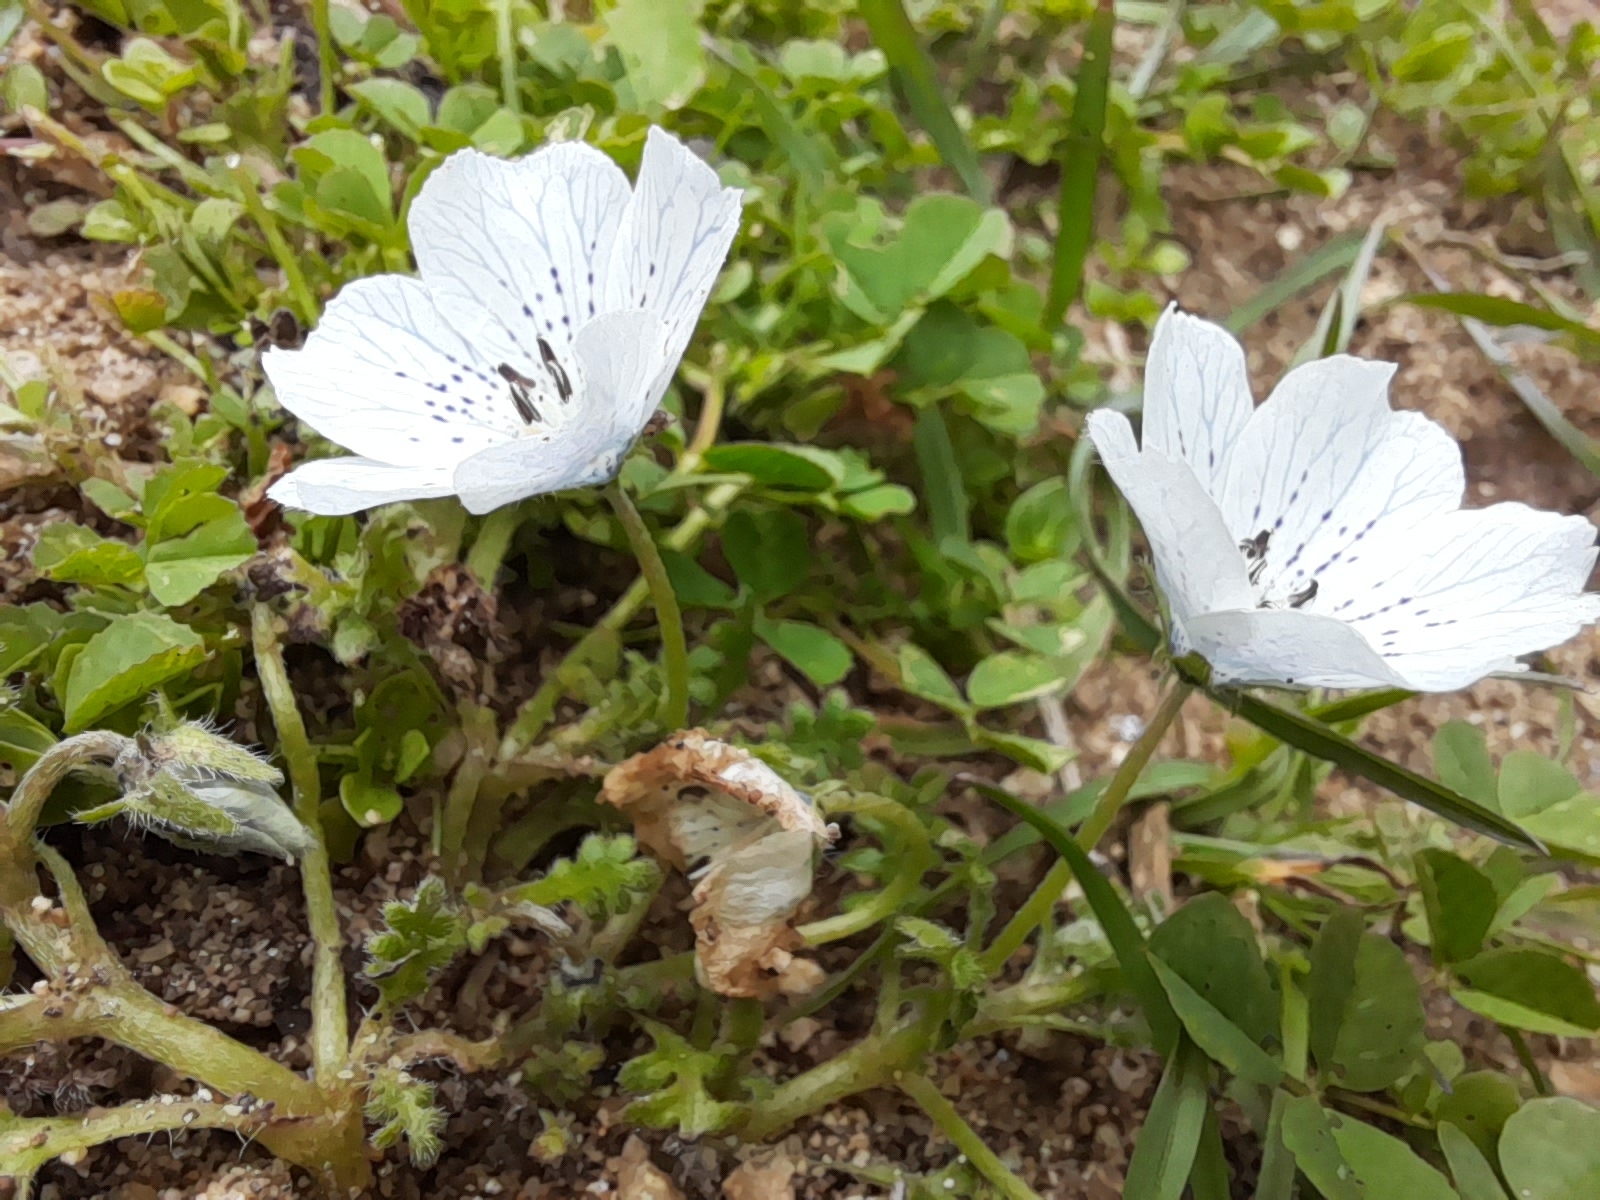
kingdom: Plantae
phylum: Tracheophyta
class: Magnoliopsida
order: Boraginales
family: Hydrophyllaceae
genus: Nemophila
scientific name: Nemophila menziesii
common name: Baby's-blue-eyes
